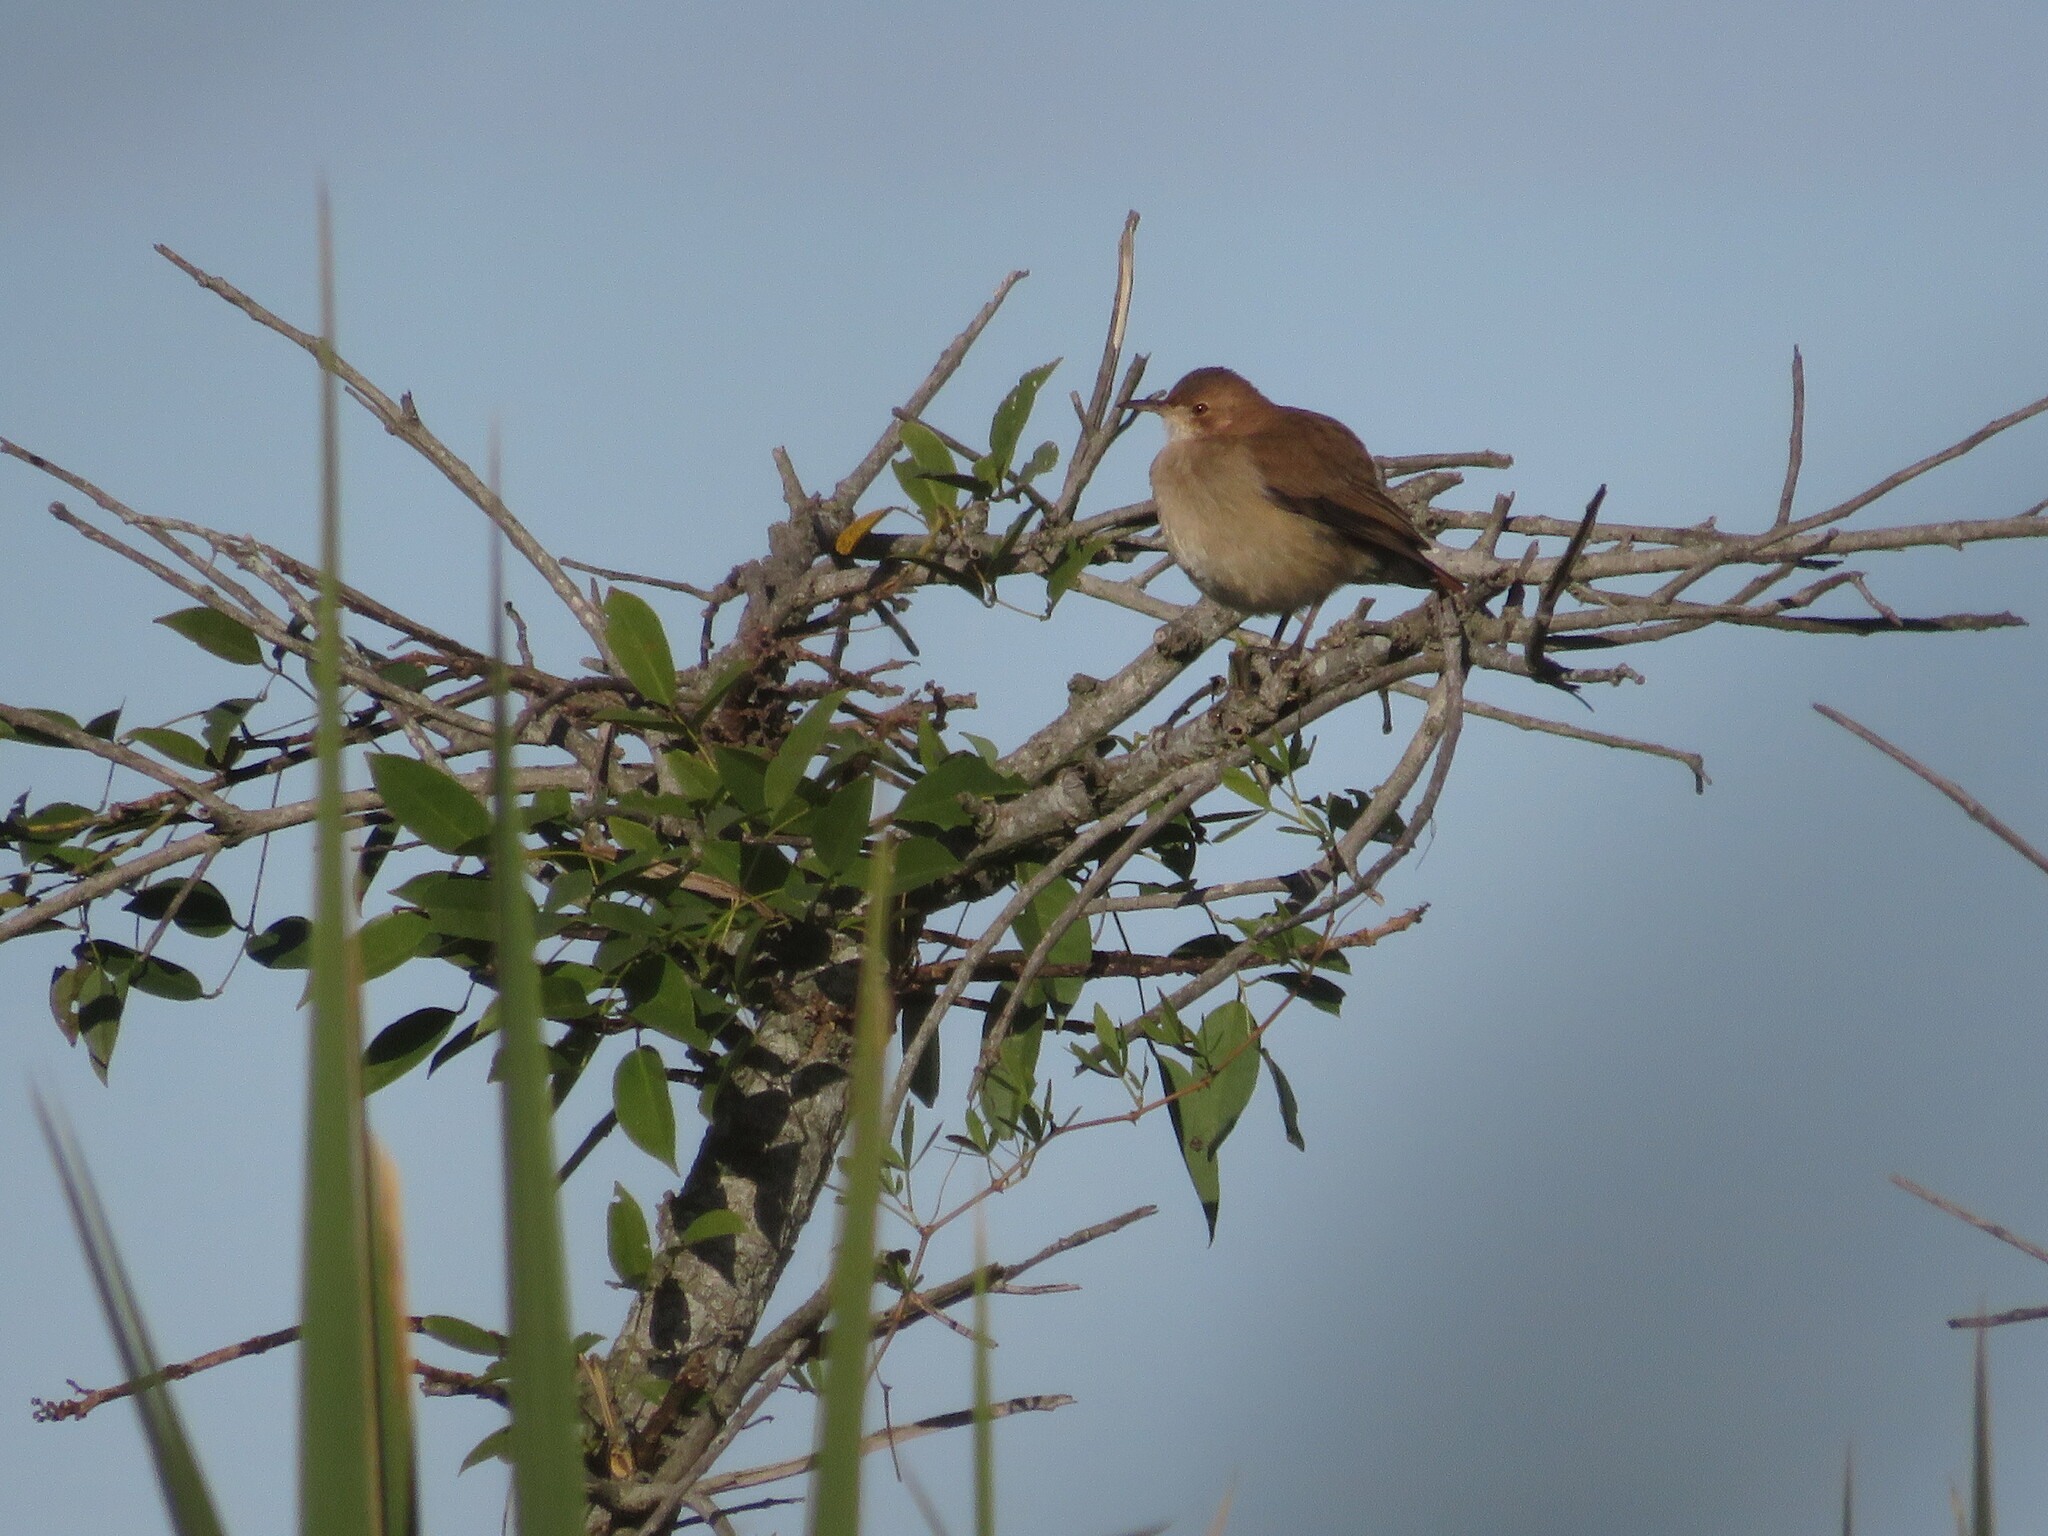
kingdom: Animalia
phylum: Chordata
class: Aves
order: Passeriformes
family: Furnariidae
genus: Furnarius
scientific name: Furnarius rufus
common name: Rufous hornero
